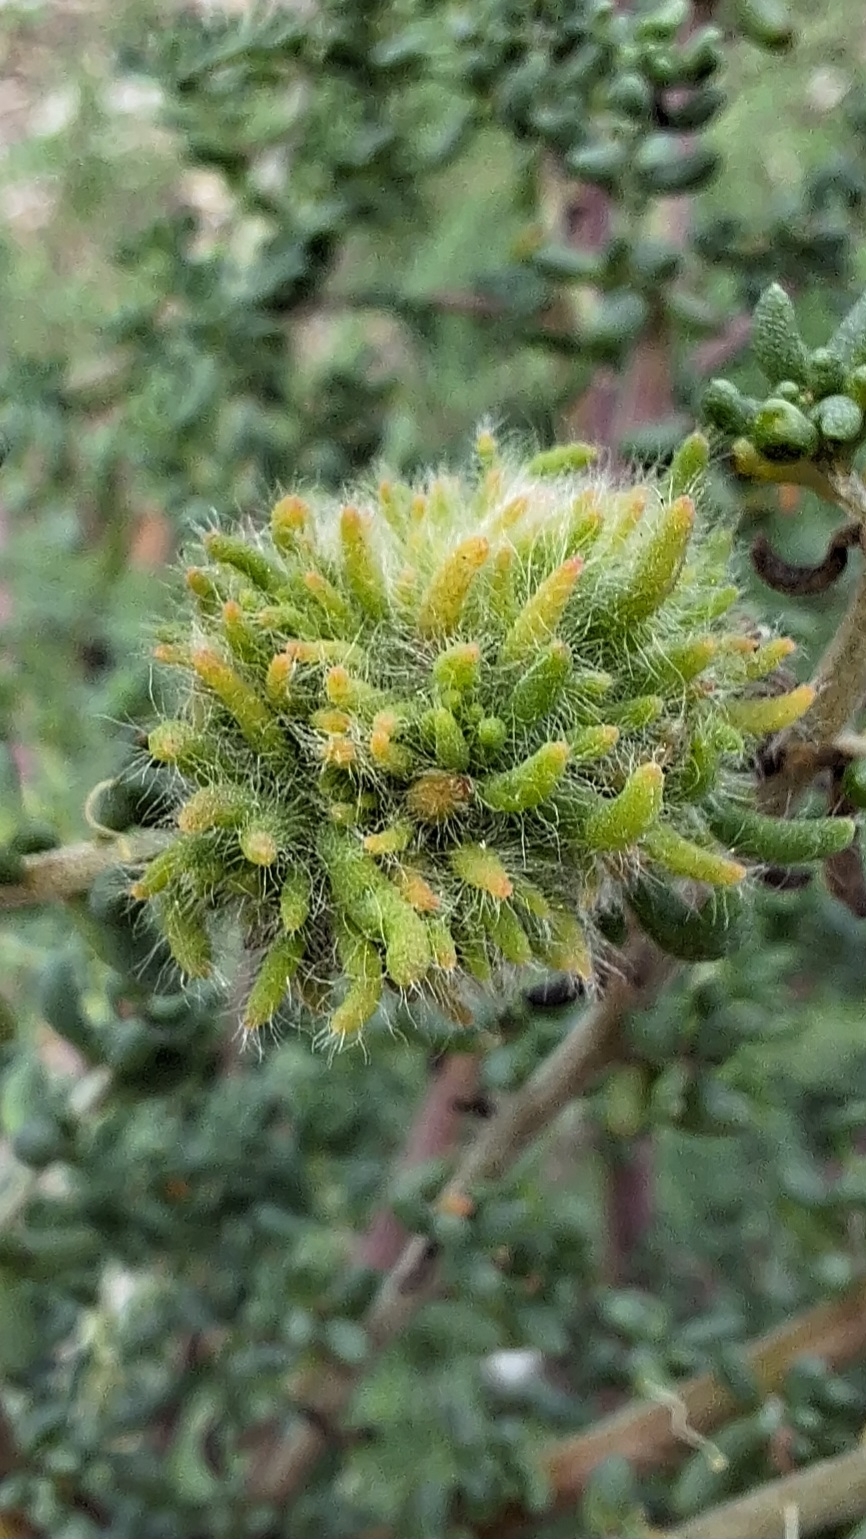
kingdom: Animalia
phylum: Arthropoda
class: Insecta
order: Diptera
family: Cecidomyiidae
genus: Dactylasioptera
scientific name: Dactylasioptera milnae
